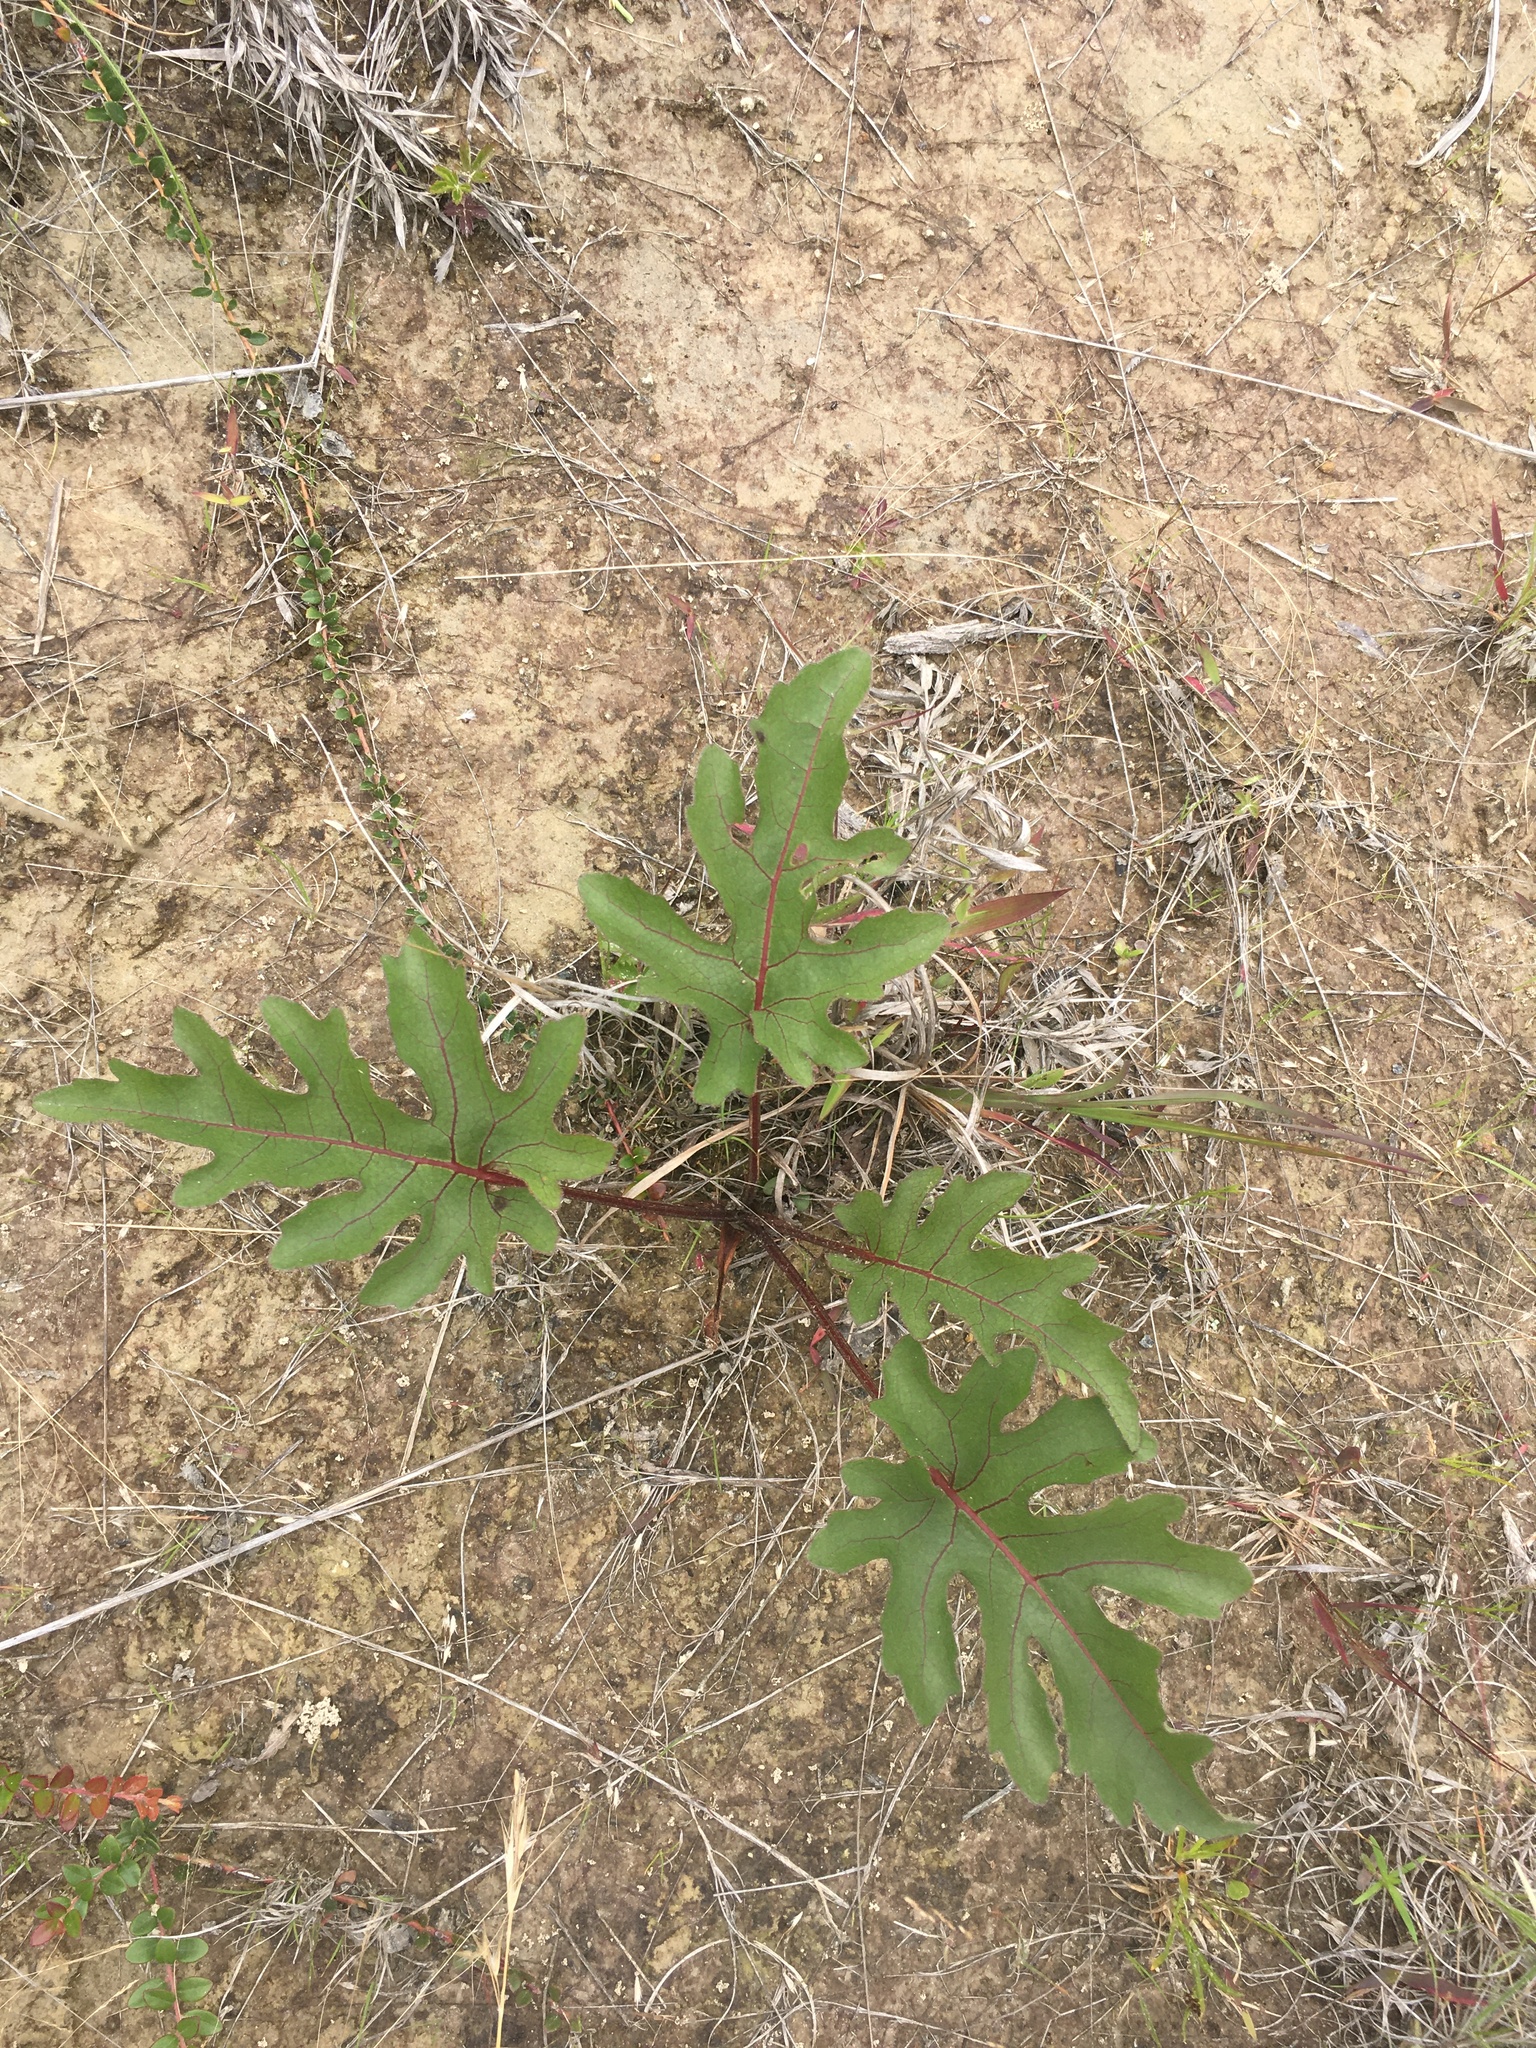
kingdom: Plantae
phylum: Tracheophyta
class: Magnoliopsida
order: Asterales
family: Asteraceae
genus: Silphium
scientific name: Silphium compositum
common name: Lesser basal-leaf rosinweed
